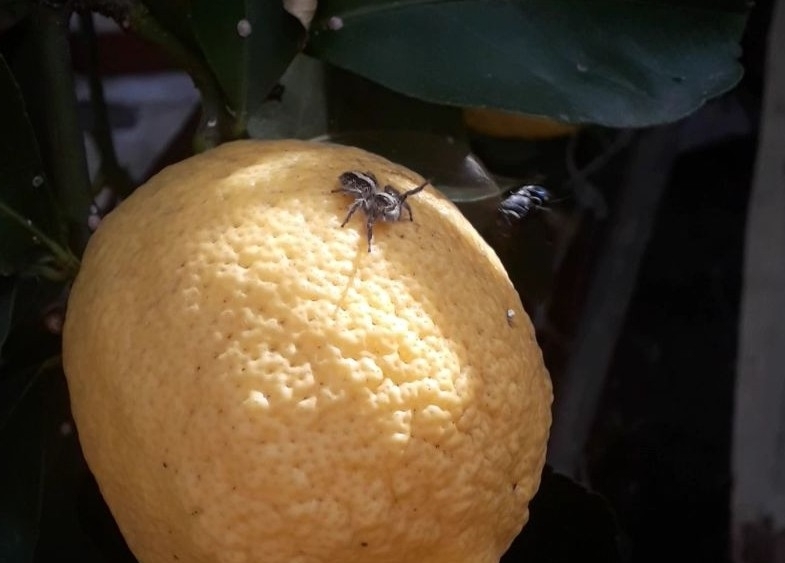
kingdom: Animalia
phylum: Arthropoda
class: Arachnida
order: Araneae
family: Salticidae
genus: Megafreya
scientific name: Megafreya sutrix
